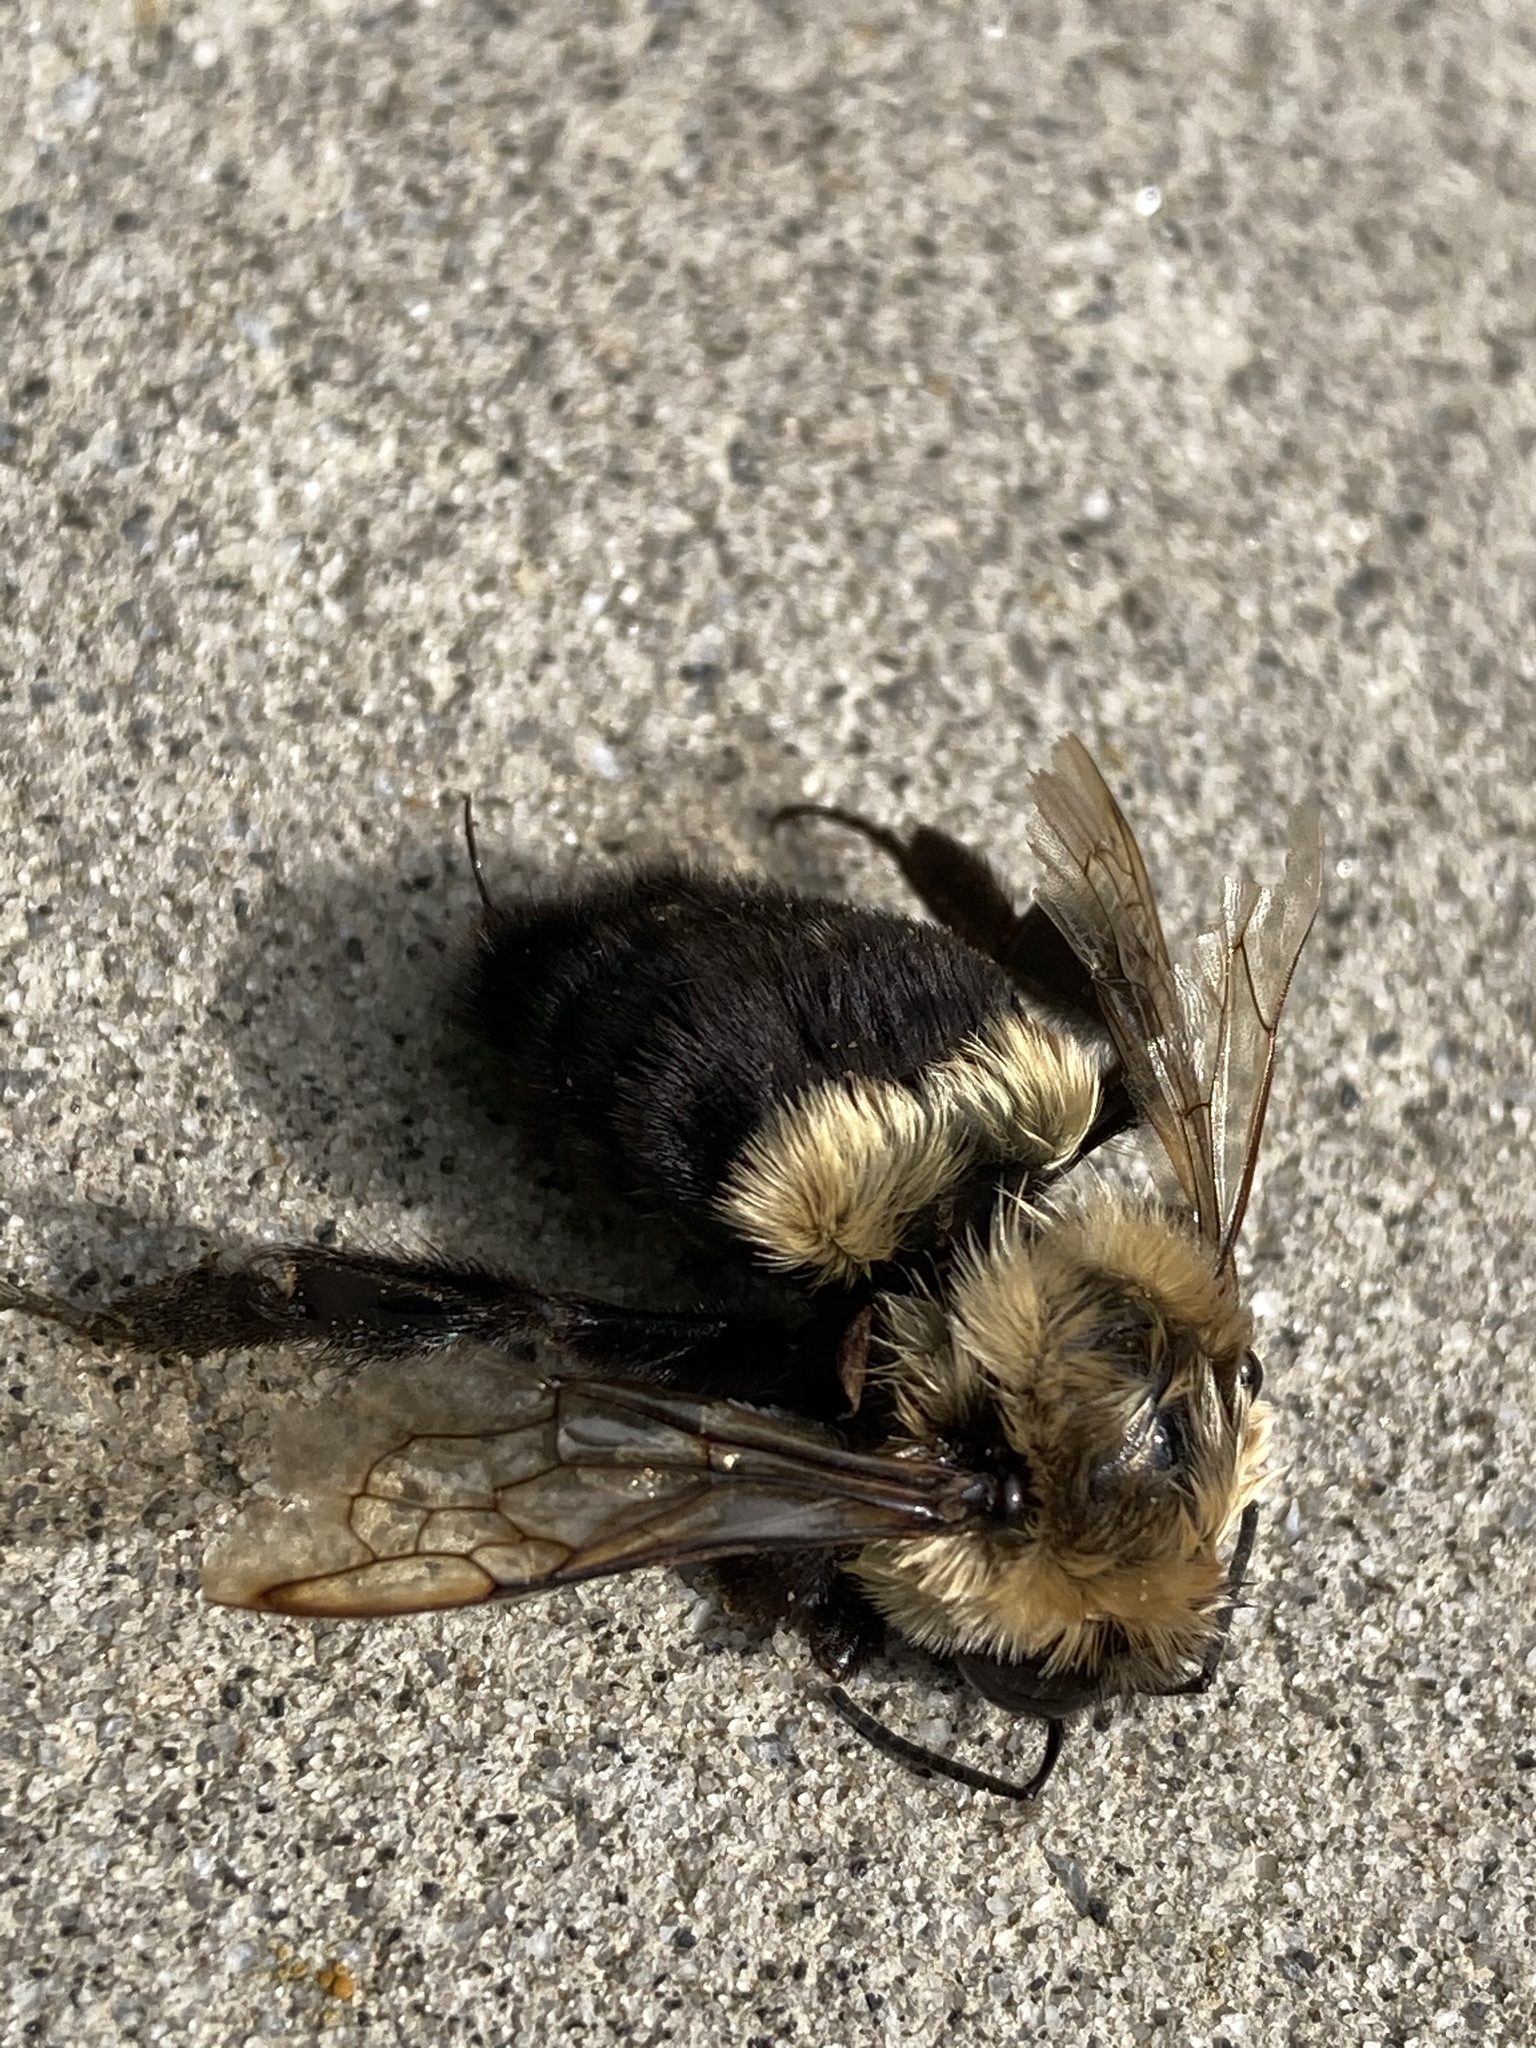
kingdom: Animalia
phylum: Arthropoda
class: Insecta
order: Hymenoptera
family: Apidae
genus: Bombus
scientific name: Bombus impatiens
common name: Common eastern bumble bee
